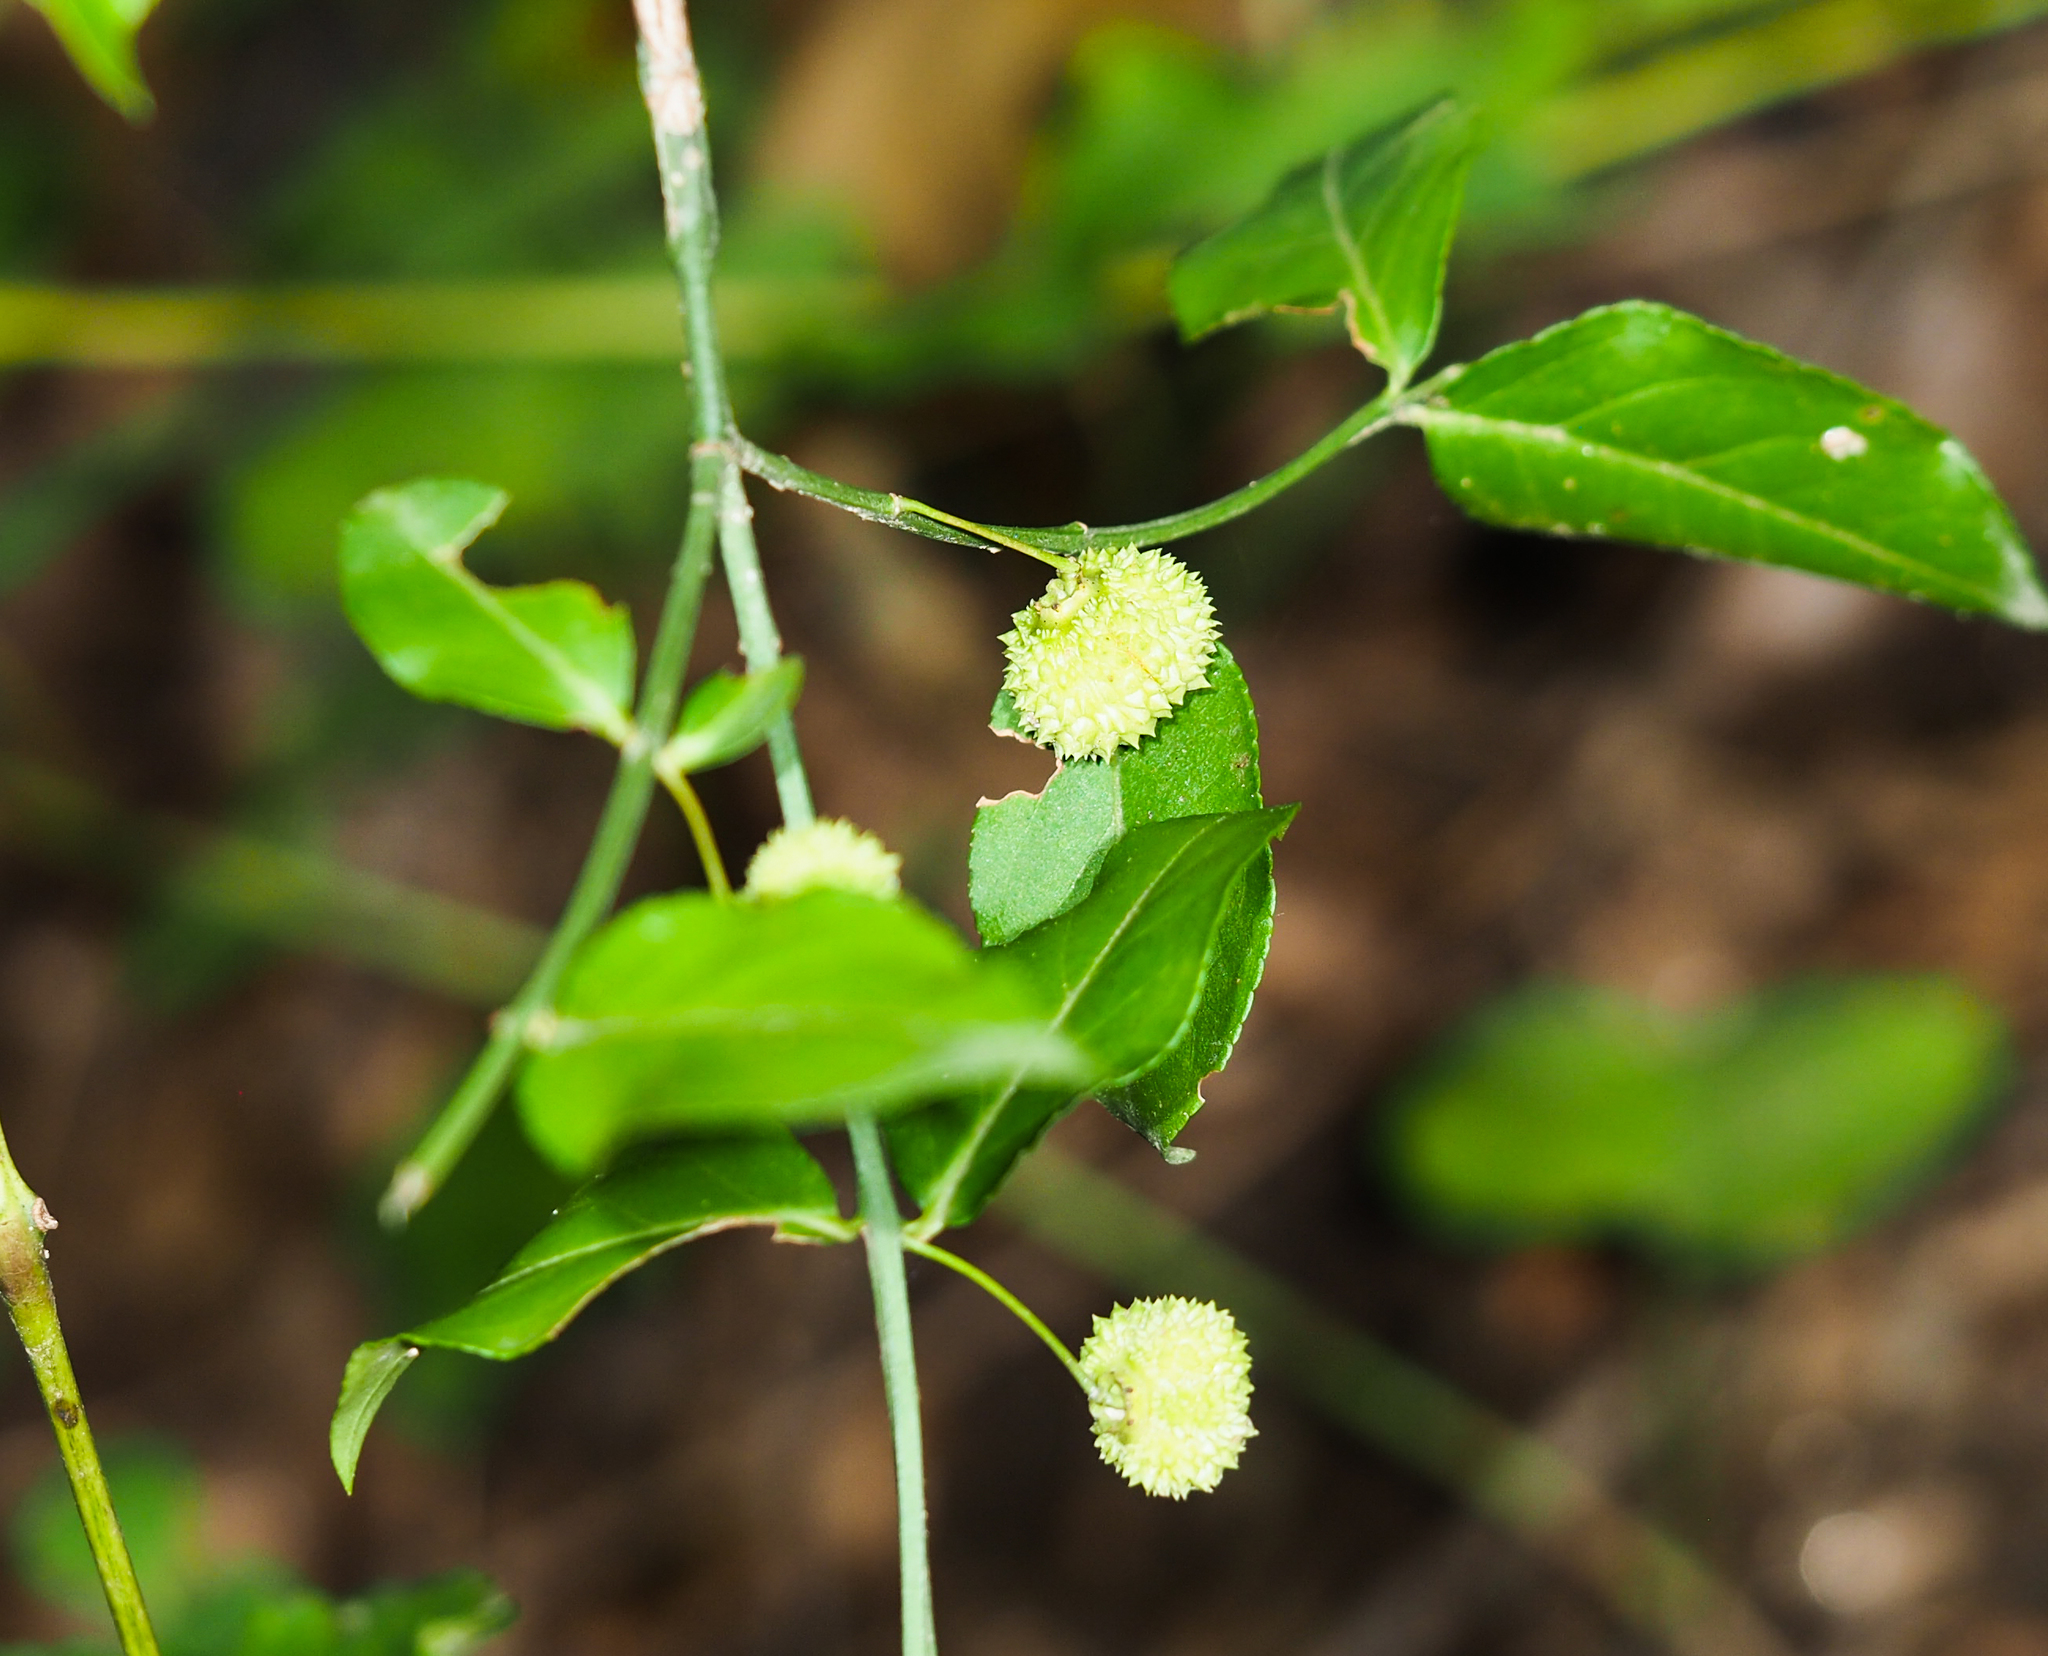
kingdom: Plantae
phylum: Tracheophyta
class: Magnoliopsida
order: Celastrales
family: Celastraceae
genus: Euonymus
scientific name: Euonymus americanus
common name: Bursting-heart
